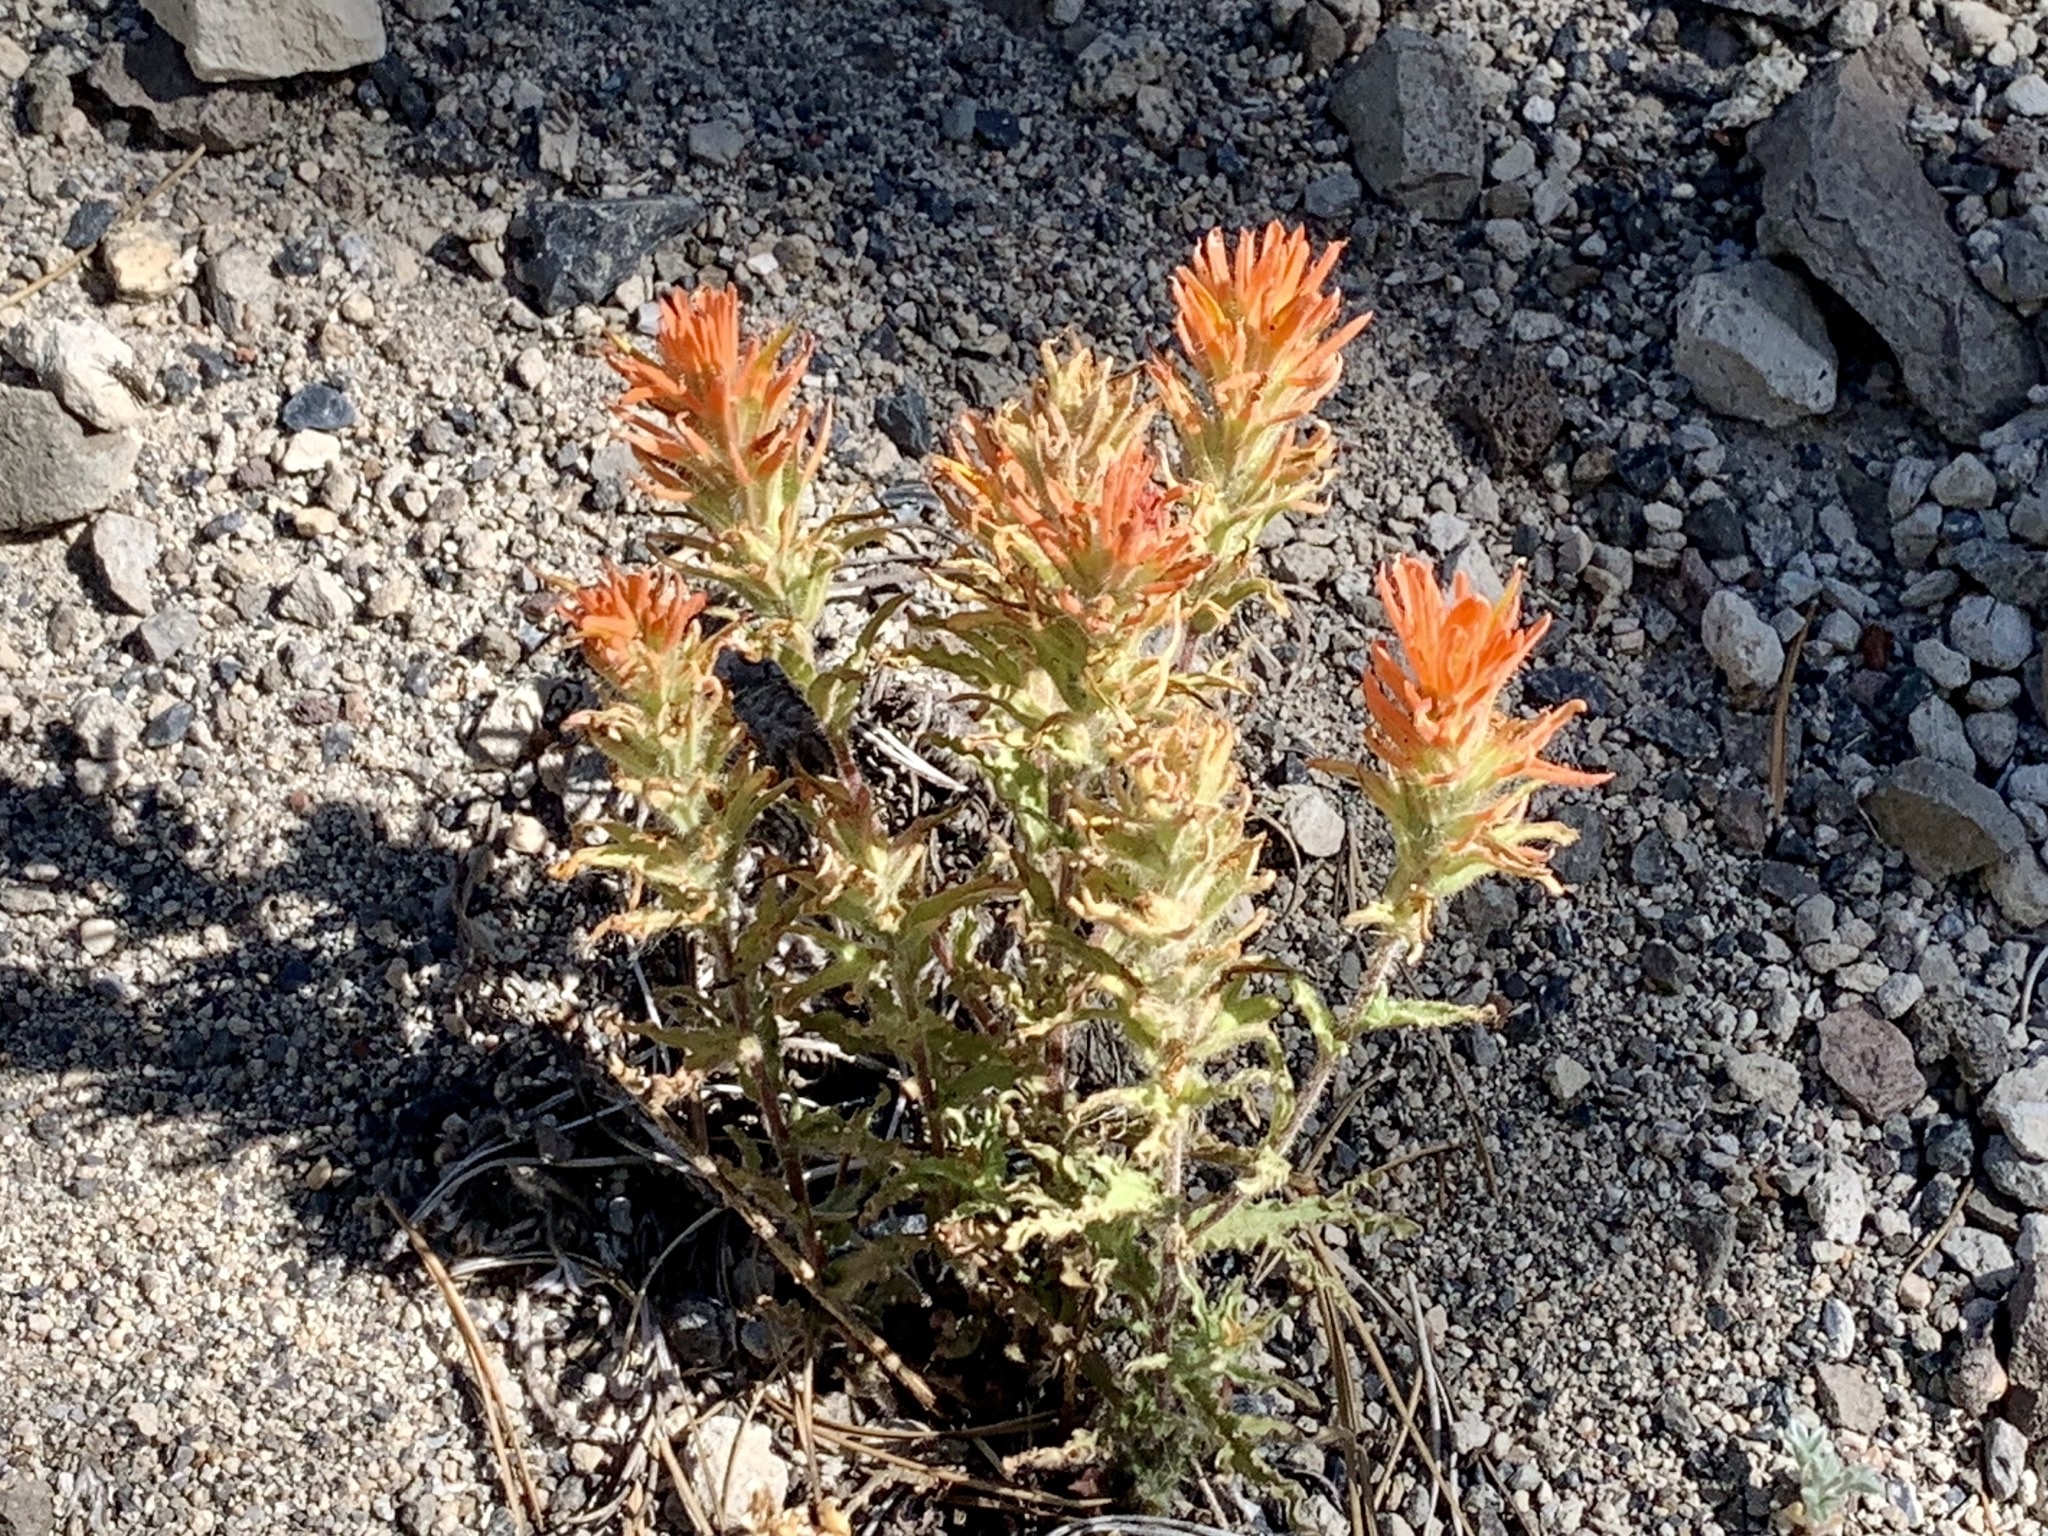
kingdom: Plantae
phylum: Tracheophyta
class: Magnoliopsida
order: Lamiales
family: Orobanchaceae
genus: Castilleja
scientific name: Castilleja applegatei
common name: Wavy-leaf paintbrush
